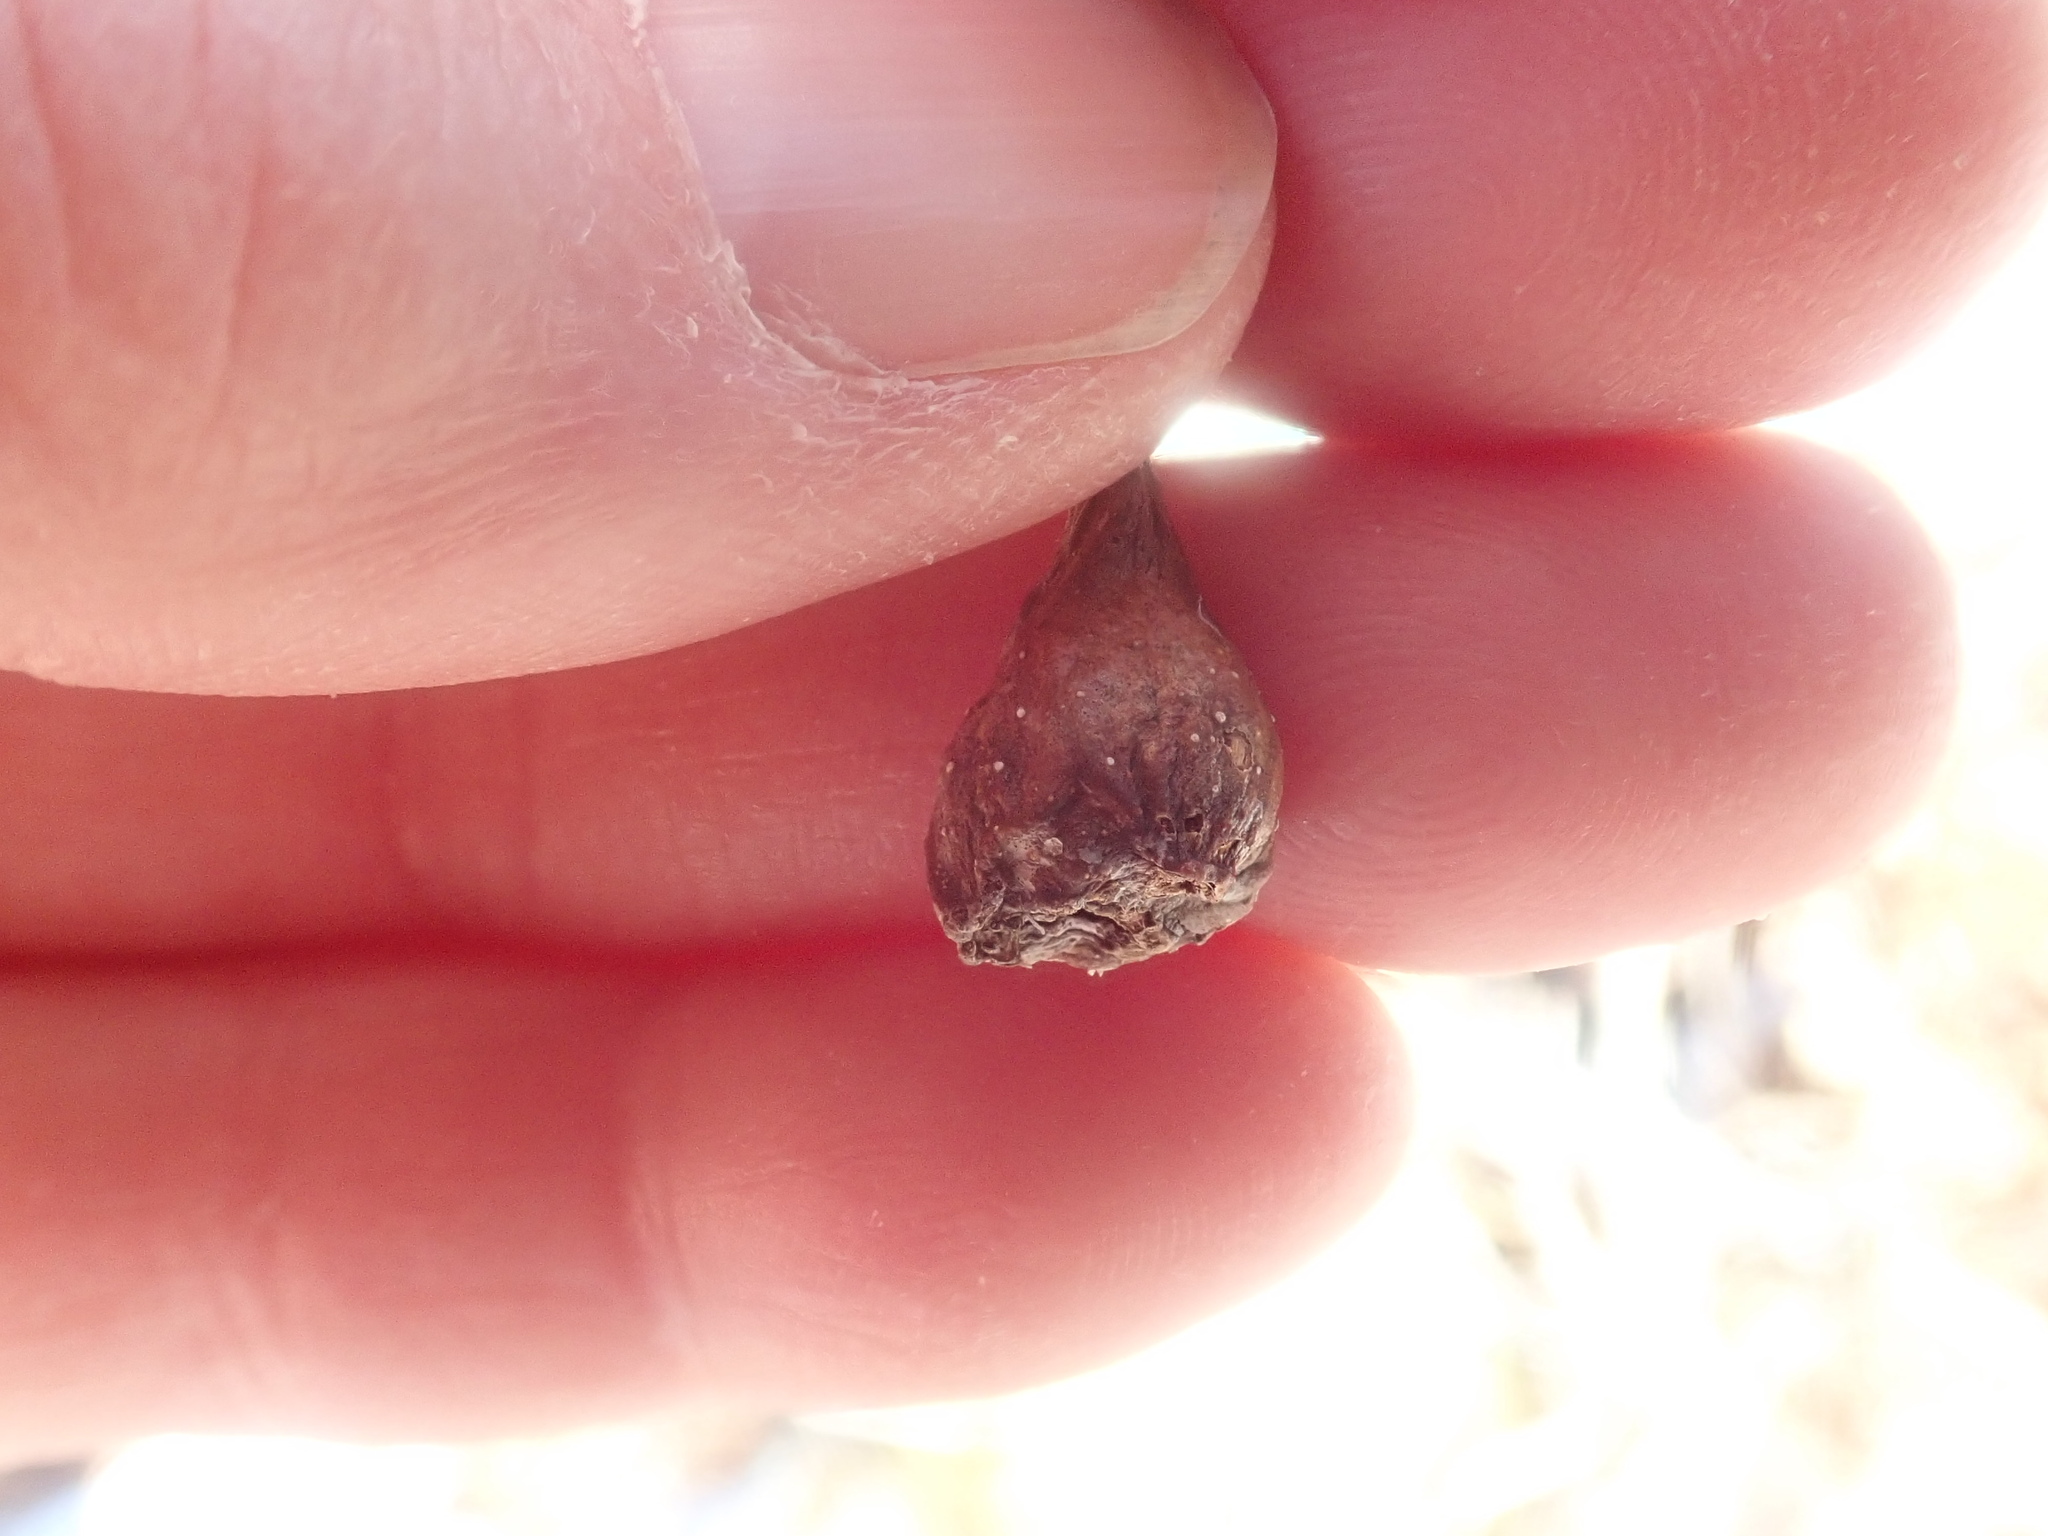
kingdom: Animalia
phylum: Arthropoda
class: Insecta
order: Hymenoptera
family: Cynipidae
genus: Callirhytis
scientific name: Callirhytis clavula
